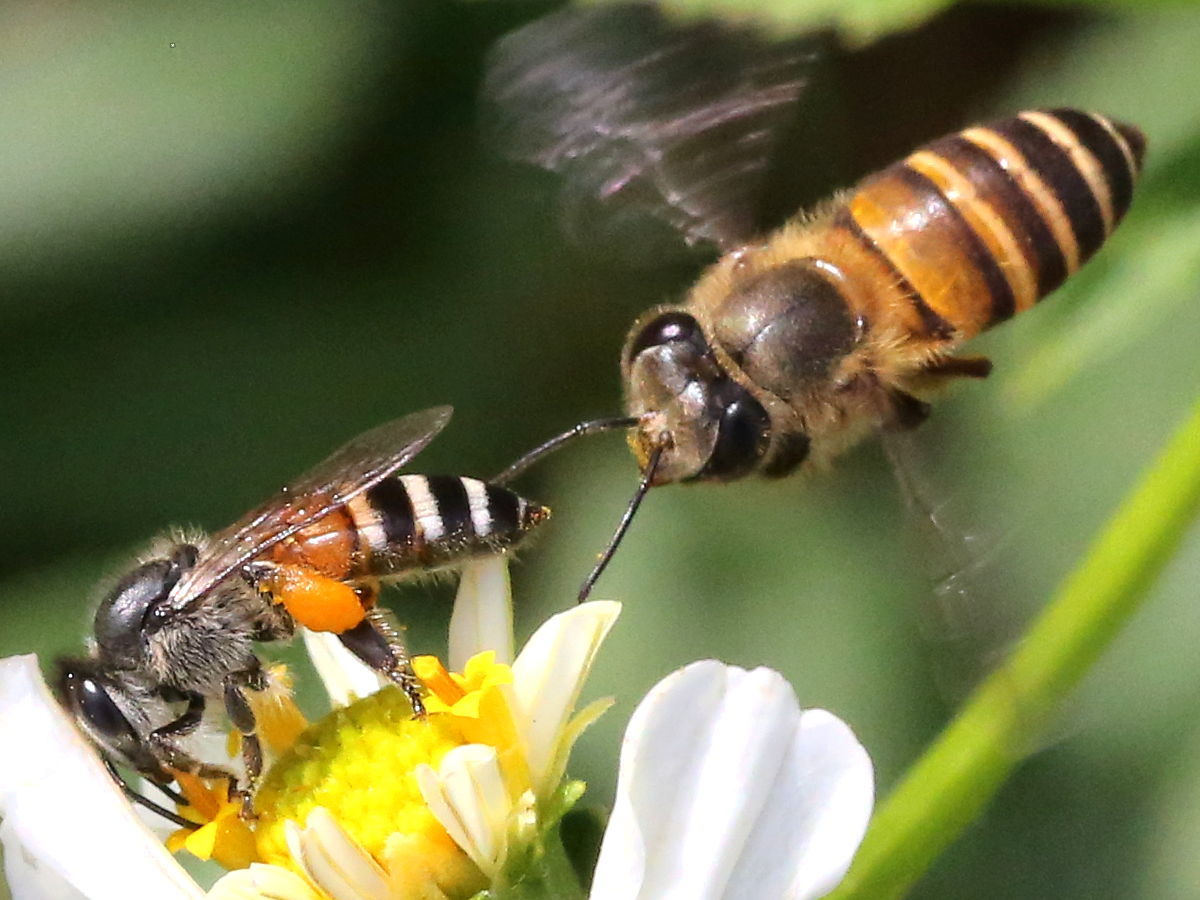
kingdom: Animalia
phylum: Arthropoda
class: Insecta
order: Hymenoptera
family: Apidae
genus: Apis
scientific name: Apis cerana
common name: Honey bee
